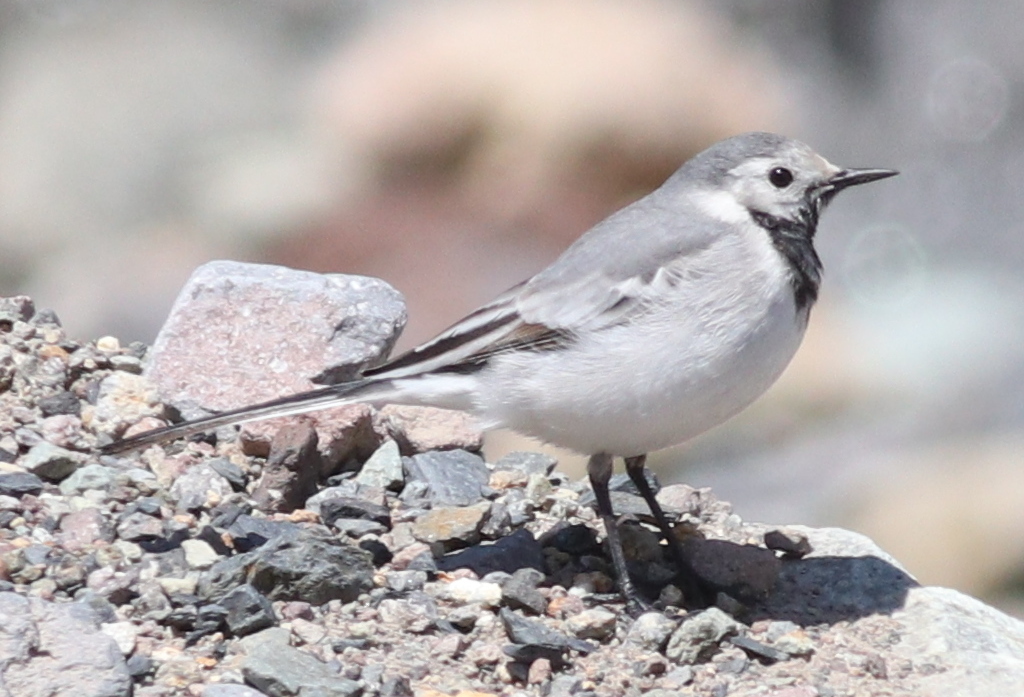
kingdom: Animalia
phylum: Chordata
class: Aves
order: Passeriformes
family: Motacillidae
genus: Motacilla
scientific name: Motacilla alba
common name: White wagtail
